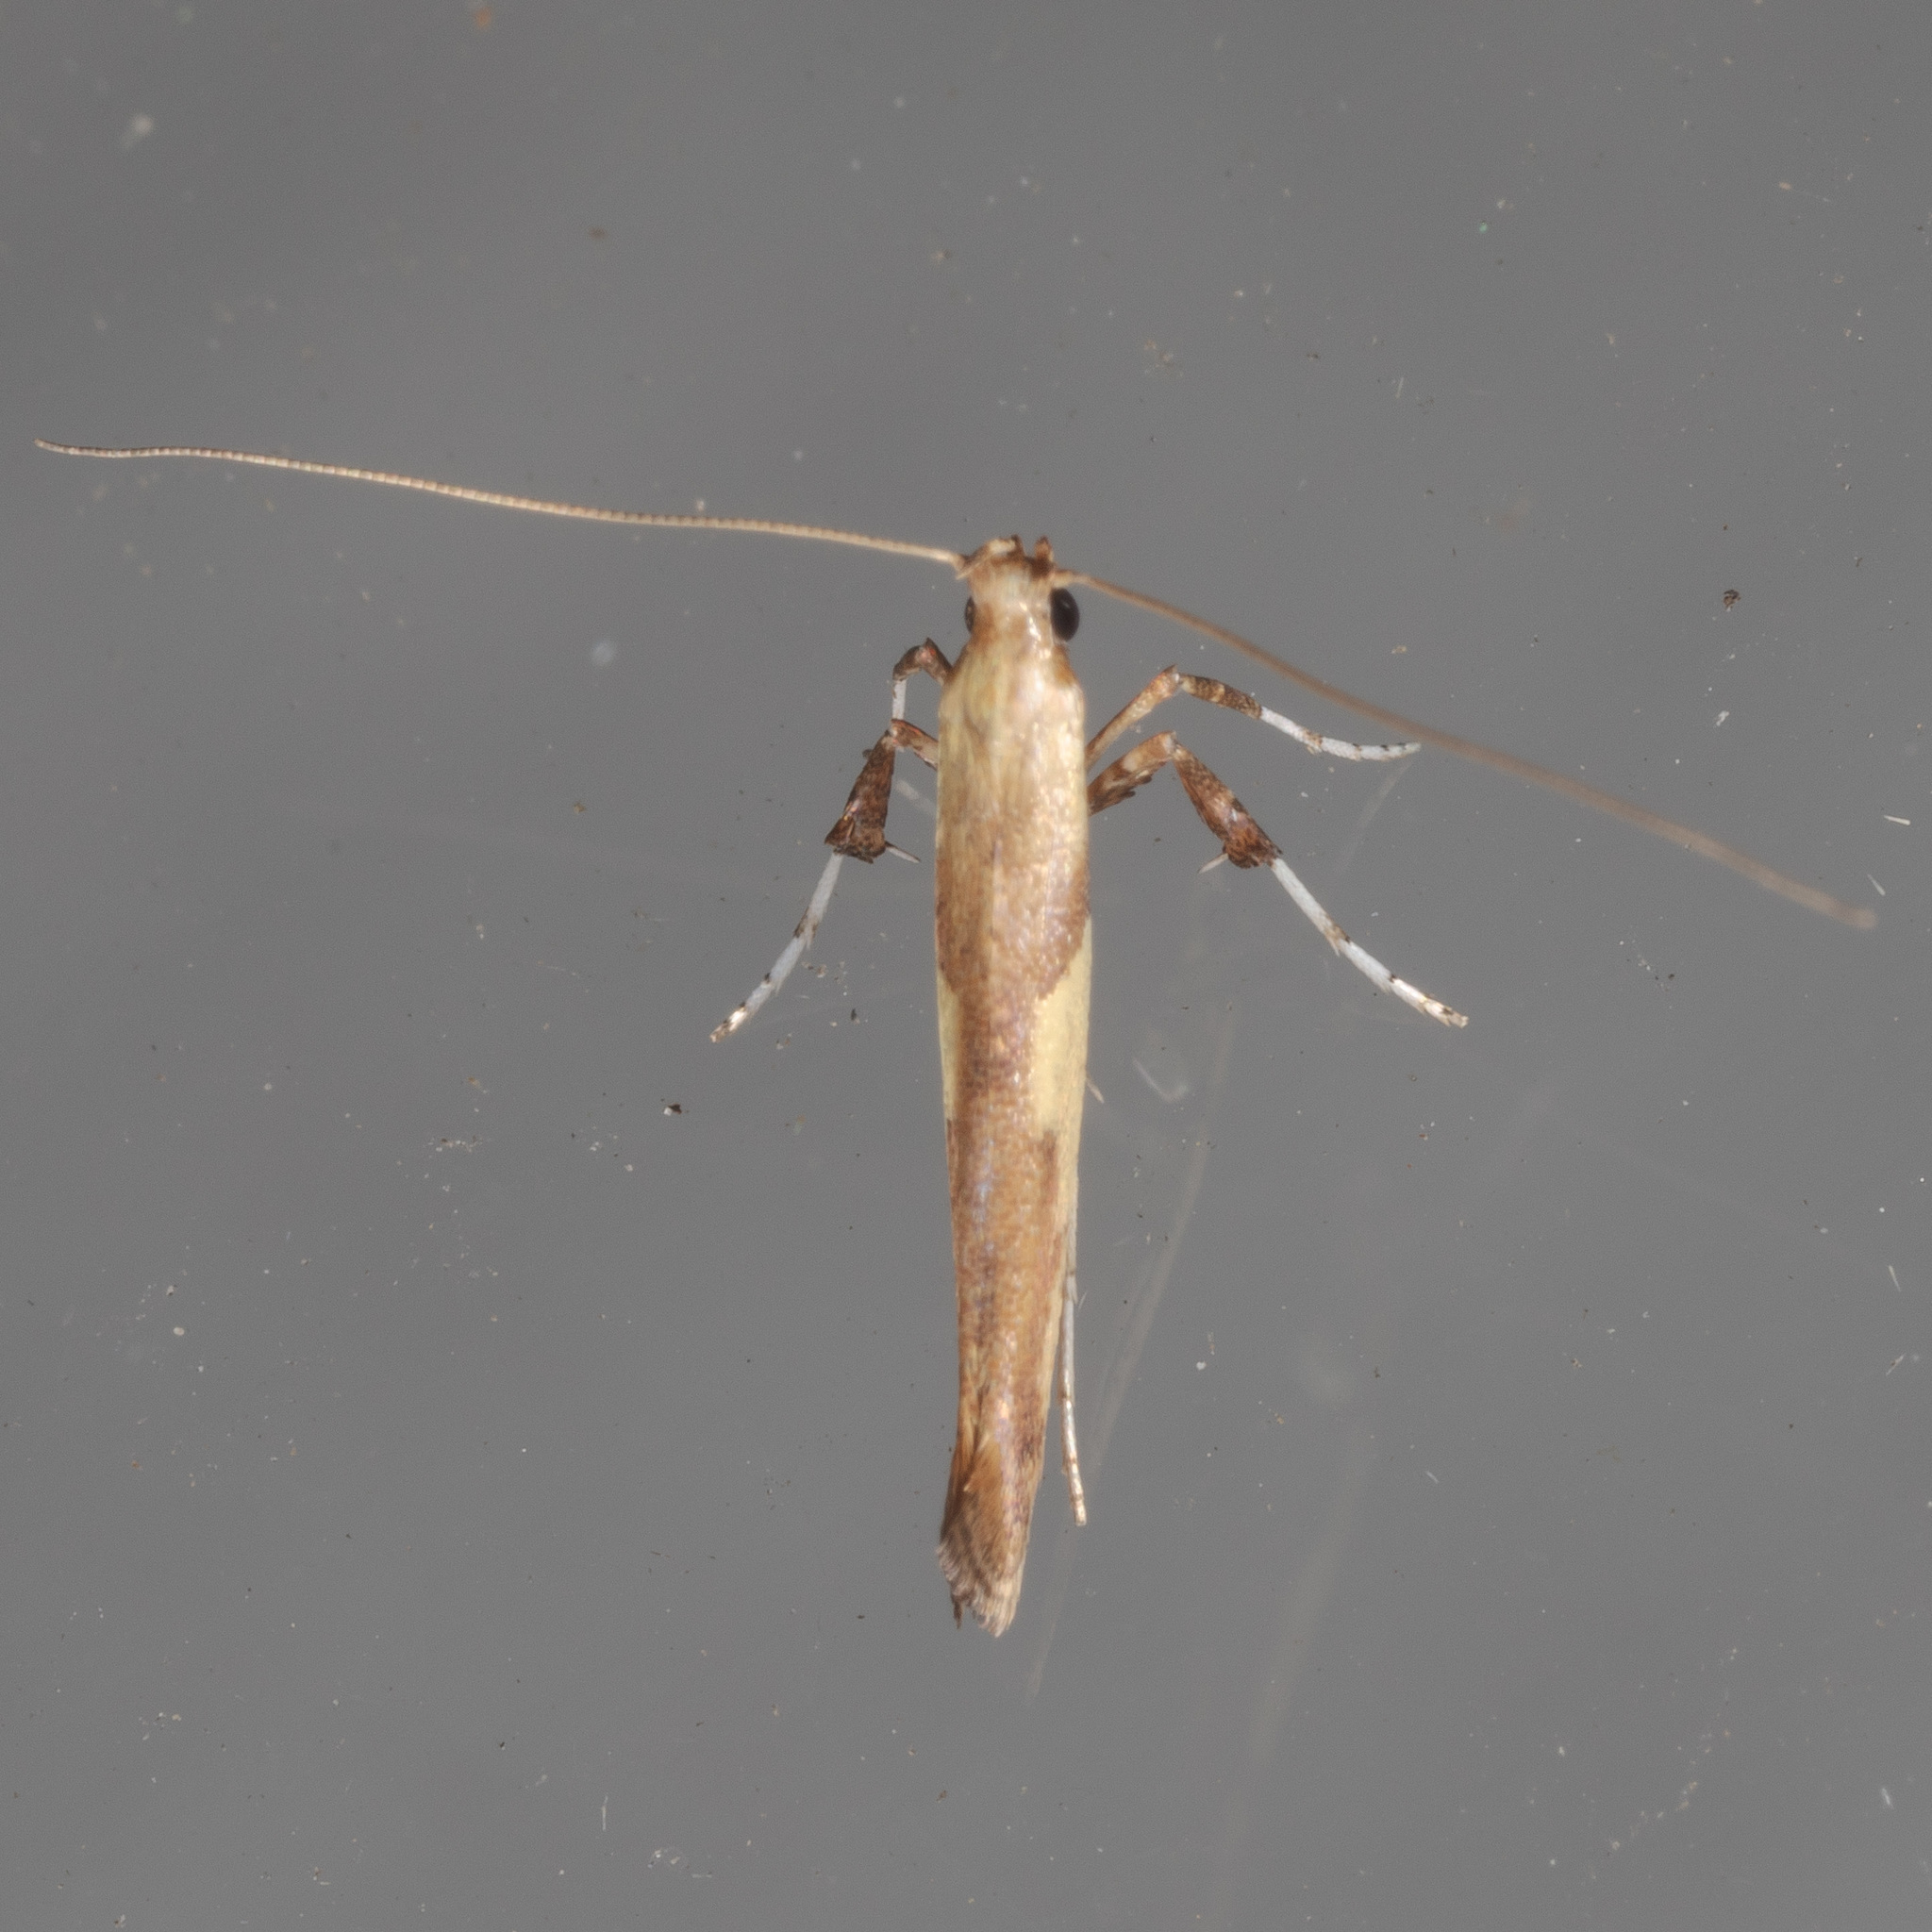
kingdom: Animalia
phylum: Arthropoda
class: Insecta
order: Lepidoptera
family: Gracillariidae
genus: Caloptilia
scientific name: Caloptilia negundella
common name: Leafminer
